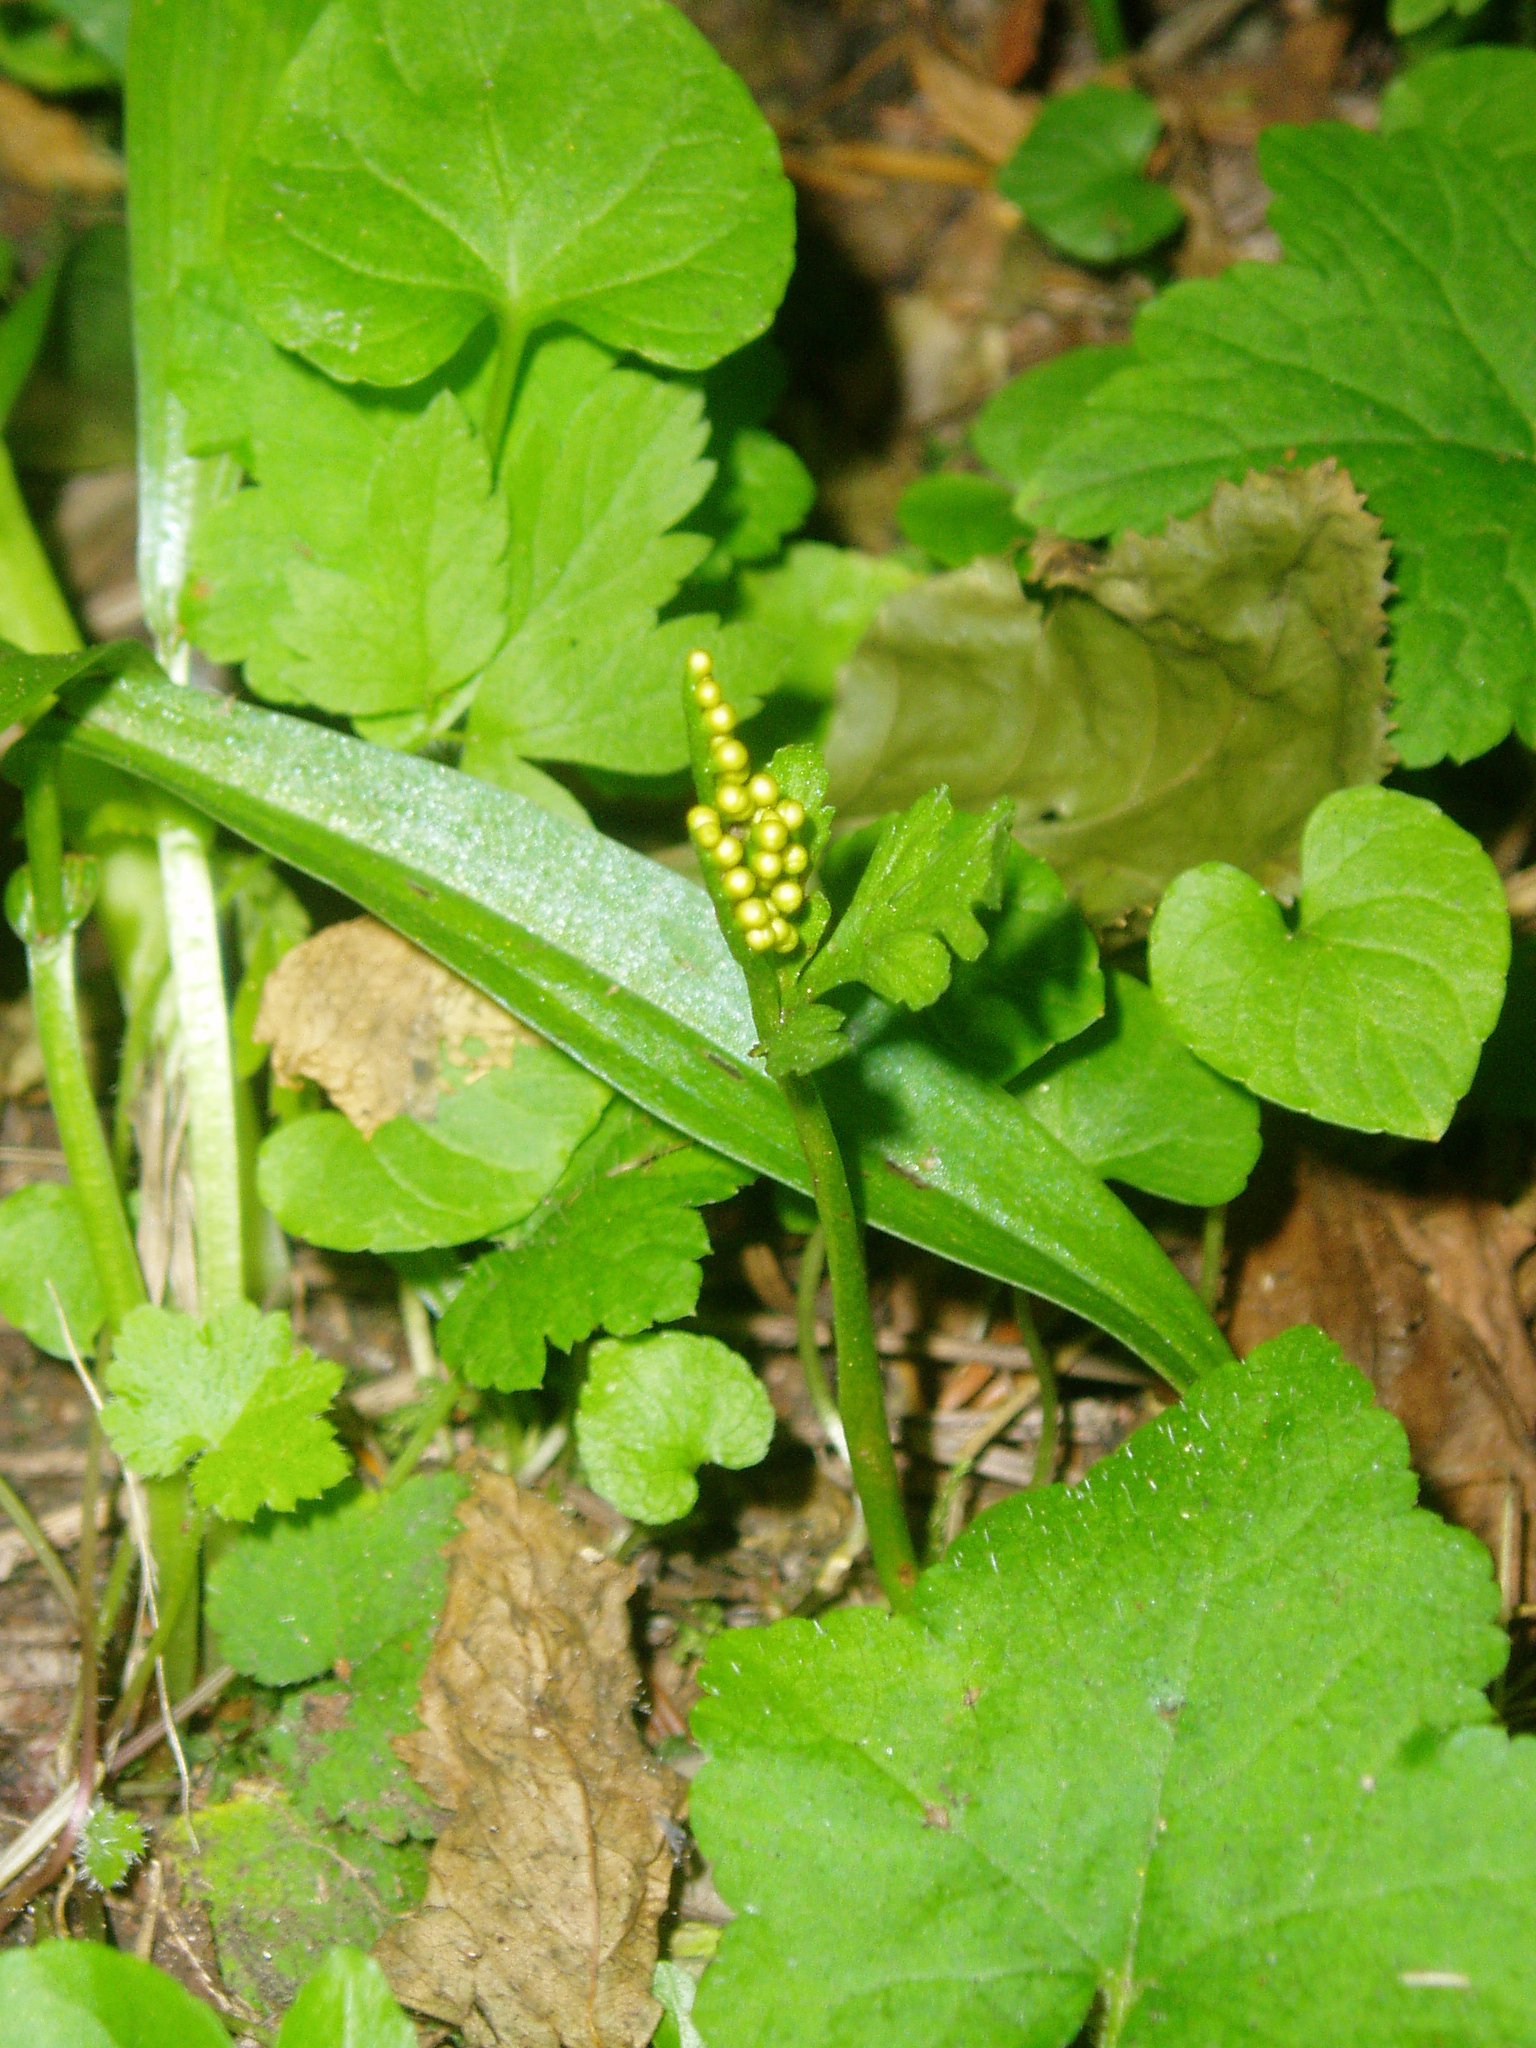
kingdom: Plantae
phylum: Tracheophyta
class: Polypodiopsida
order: Ophioglossales
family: Ophioglossaceae
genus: Botrychium
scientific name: Botrychium lanceolatum
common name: Lance-leaved moonwort
